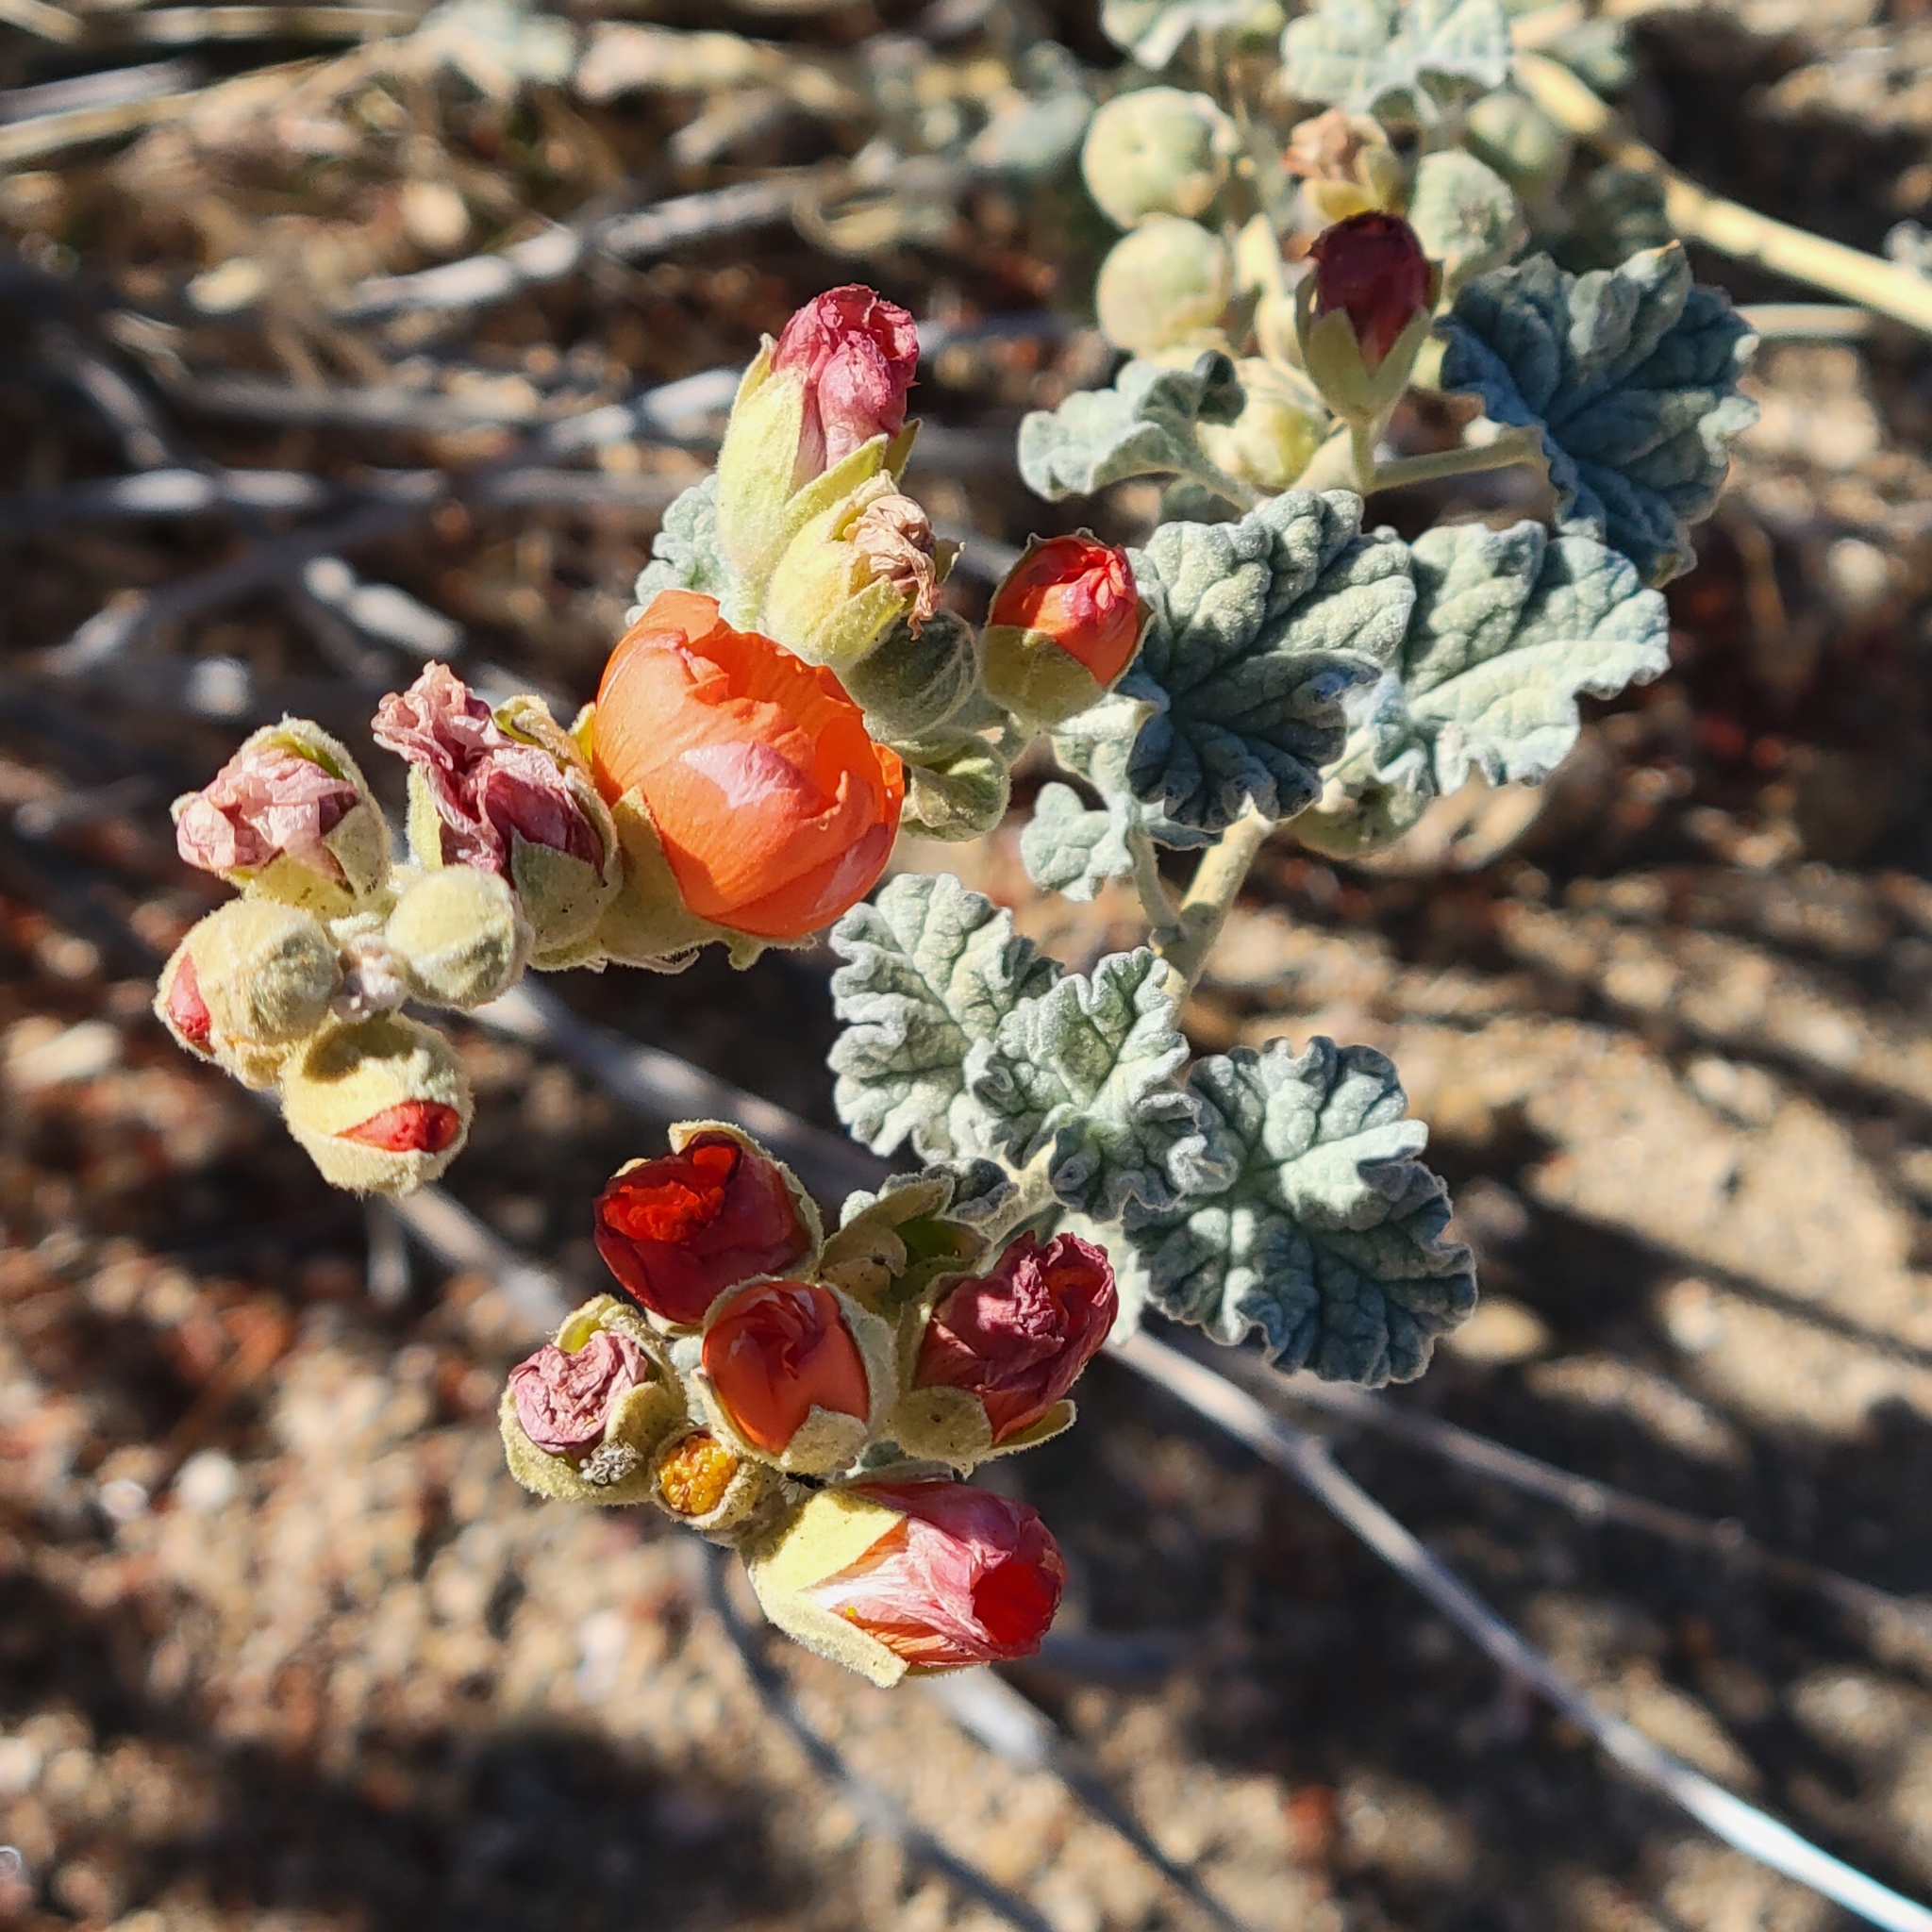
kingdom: Plantae
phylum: Tracheophyta
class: Magnoliopsida
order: Malvales
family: Malvaceae
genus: Sphaeralcea
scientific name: Sphaeralcea ambigua
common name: Apricot globe-mallow
